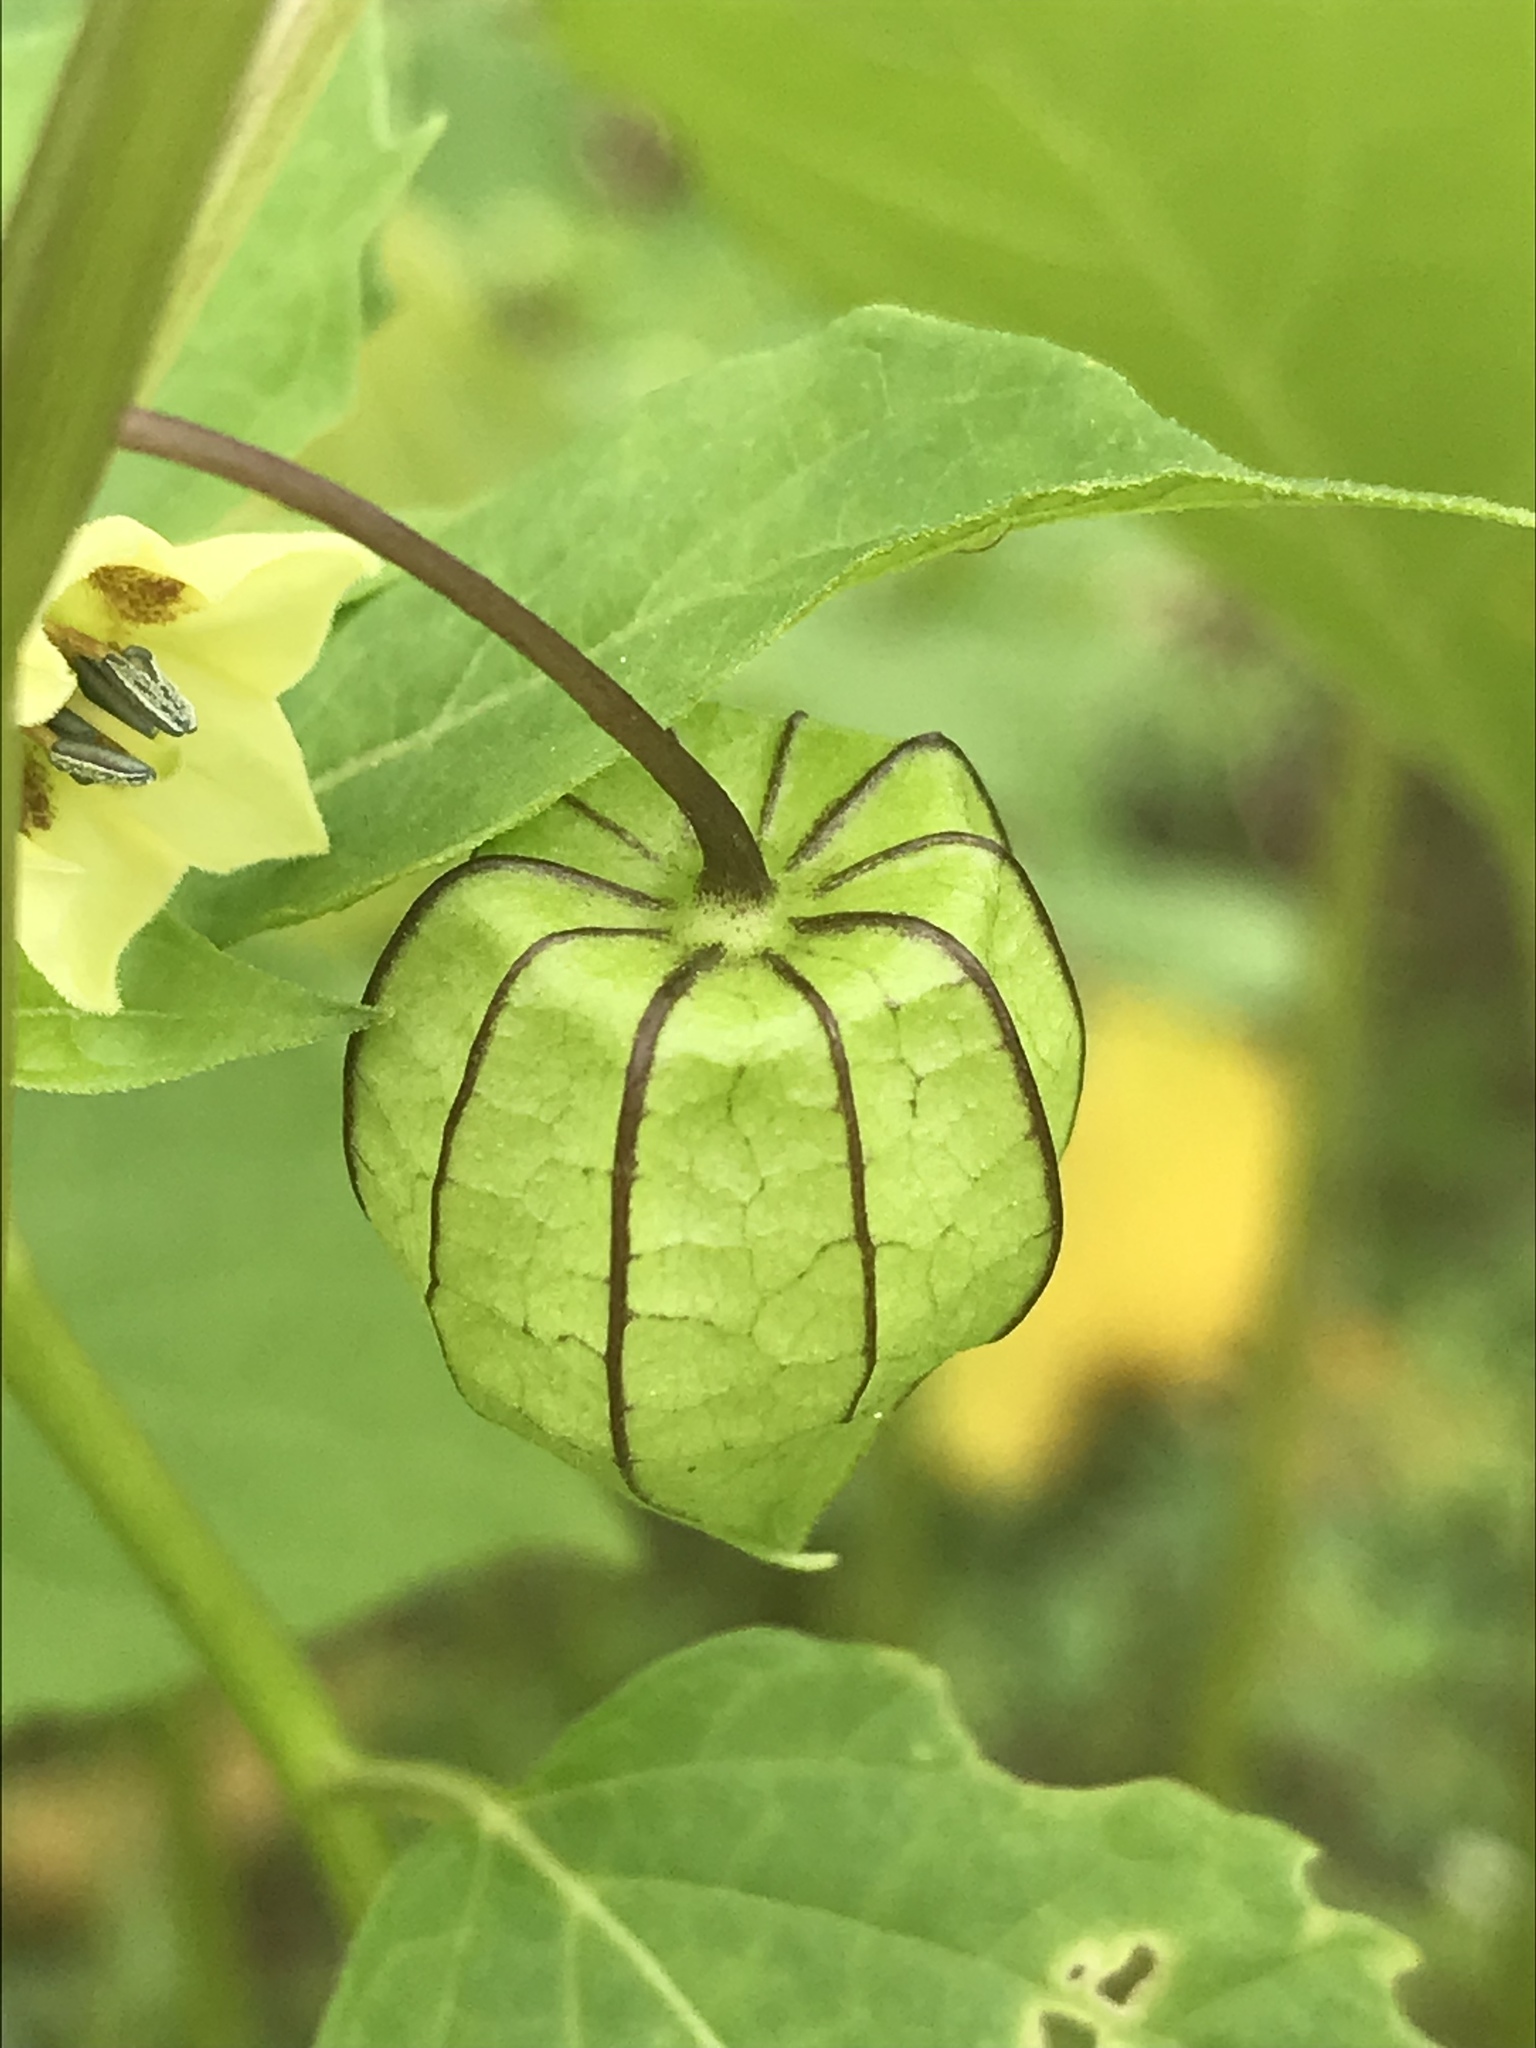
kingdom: Plantae
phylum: Tracheophyta
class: Magnoliopsida
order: Solanales
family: Solanaceae
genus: Physalis
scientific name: Physalis angulata
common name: Angular winter-cherry
